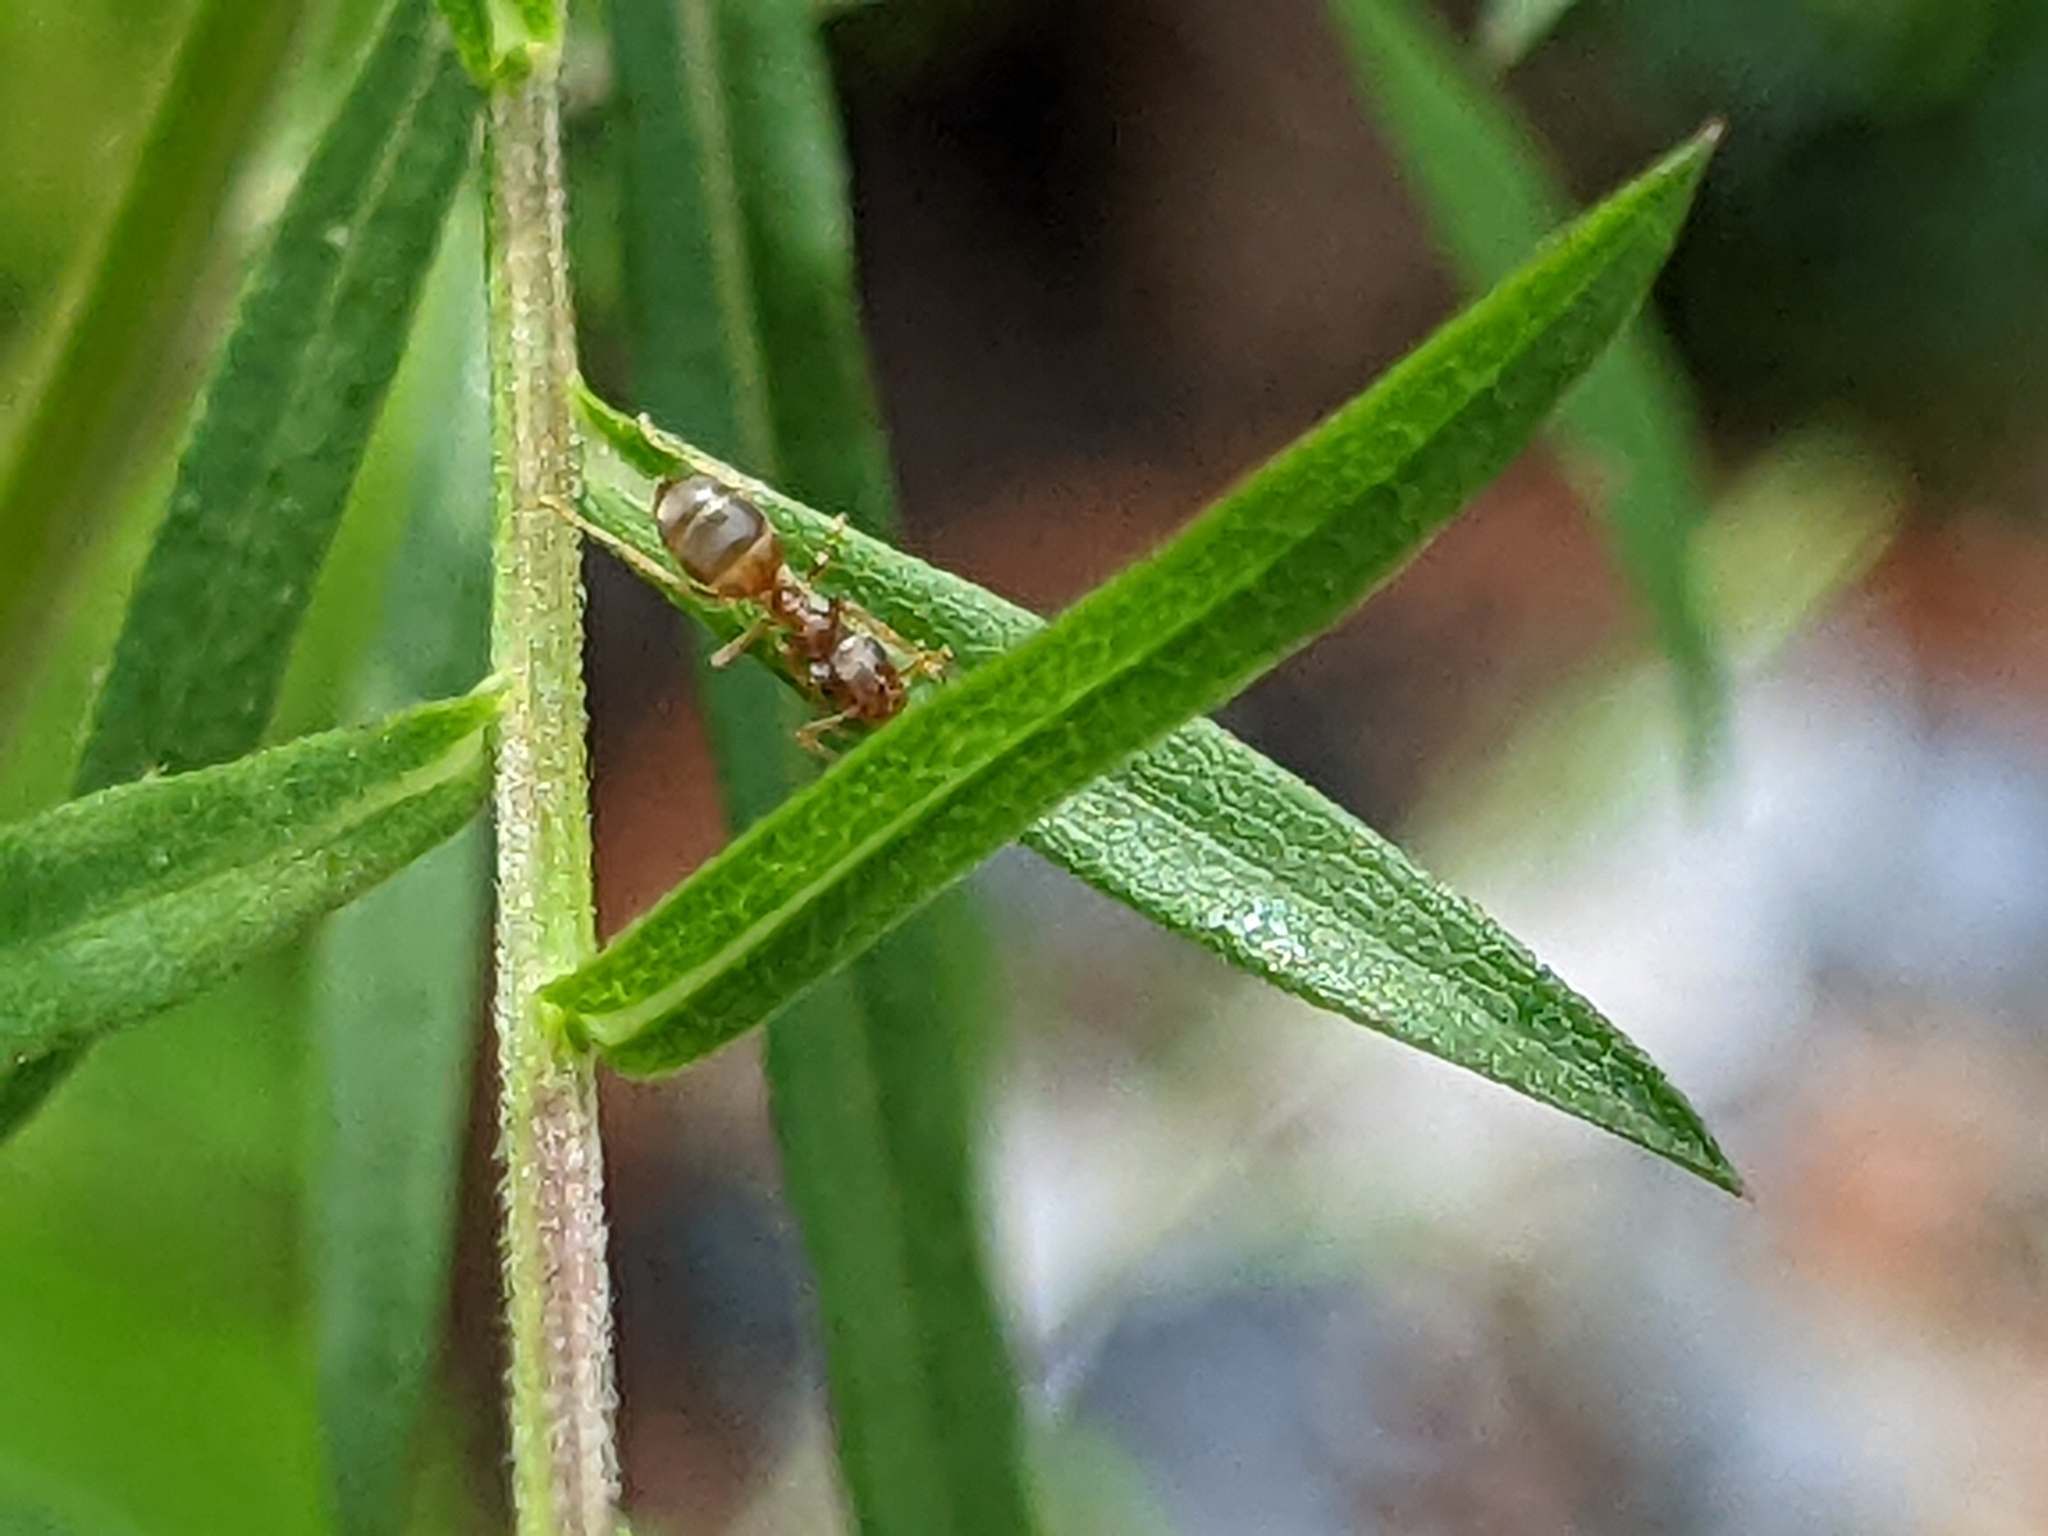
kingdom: Animalia
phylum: Arthropoda
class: Insecta
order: Hymenoptera
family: Formicidae
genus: Lasius
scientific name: Lasius neoniger
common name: Turfgrass ant
